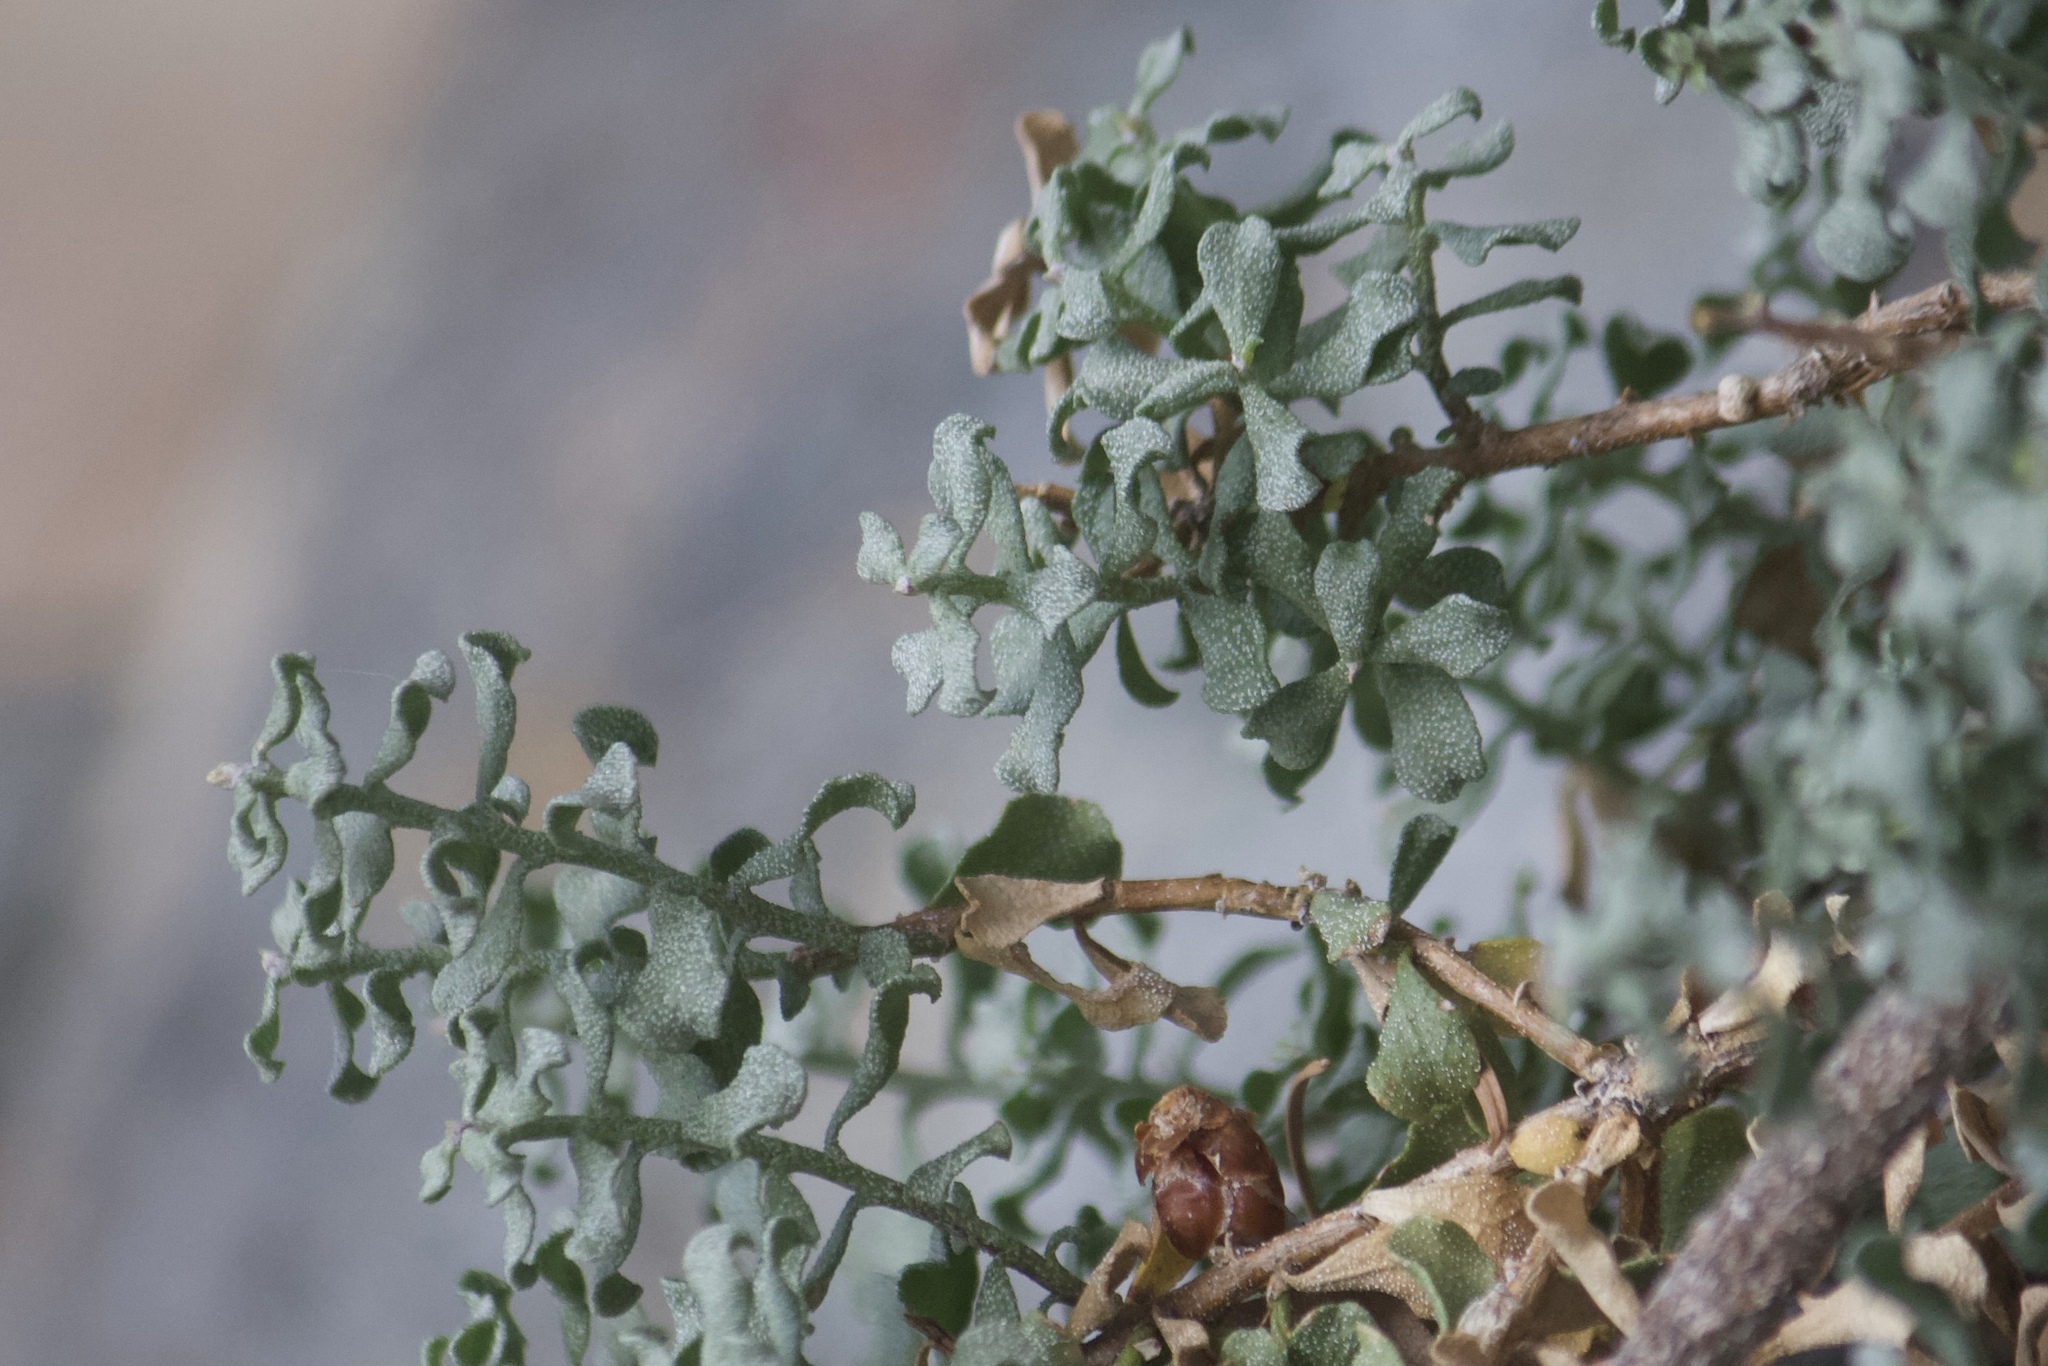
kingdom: Plantae
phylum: Tracheophyta
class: Magnoliopsida
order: Asterales
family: Asteraceae
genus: Ericameria
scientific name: Ericameria cuneata
